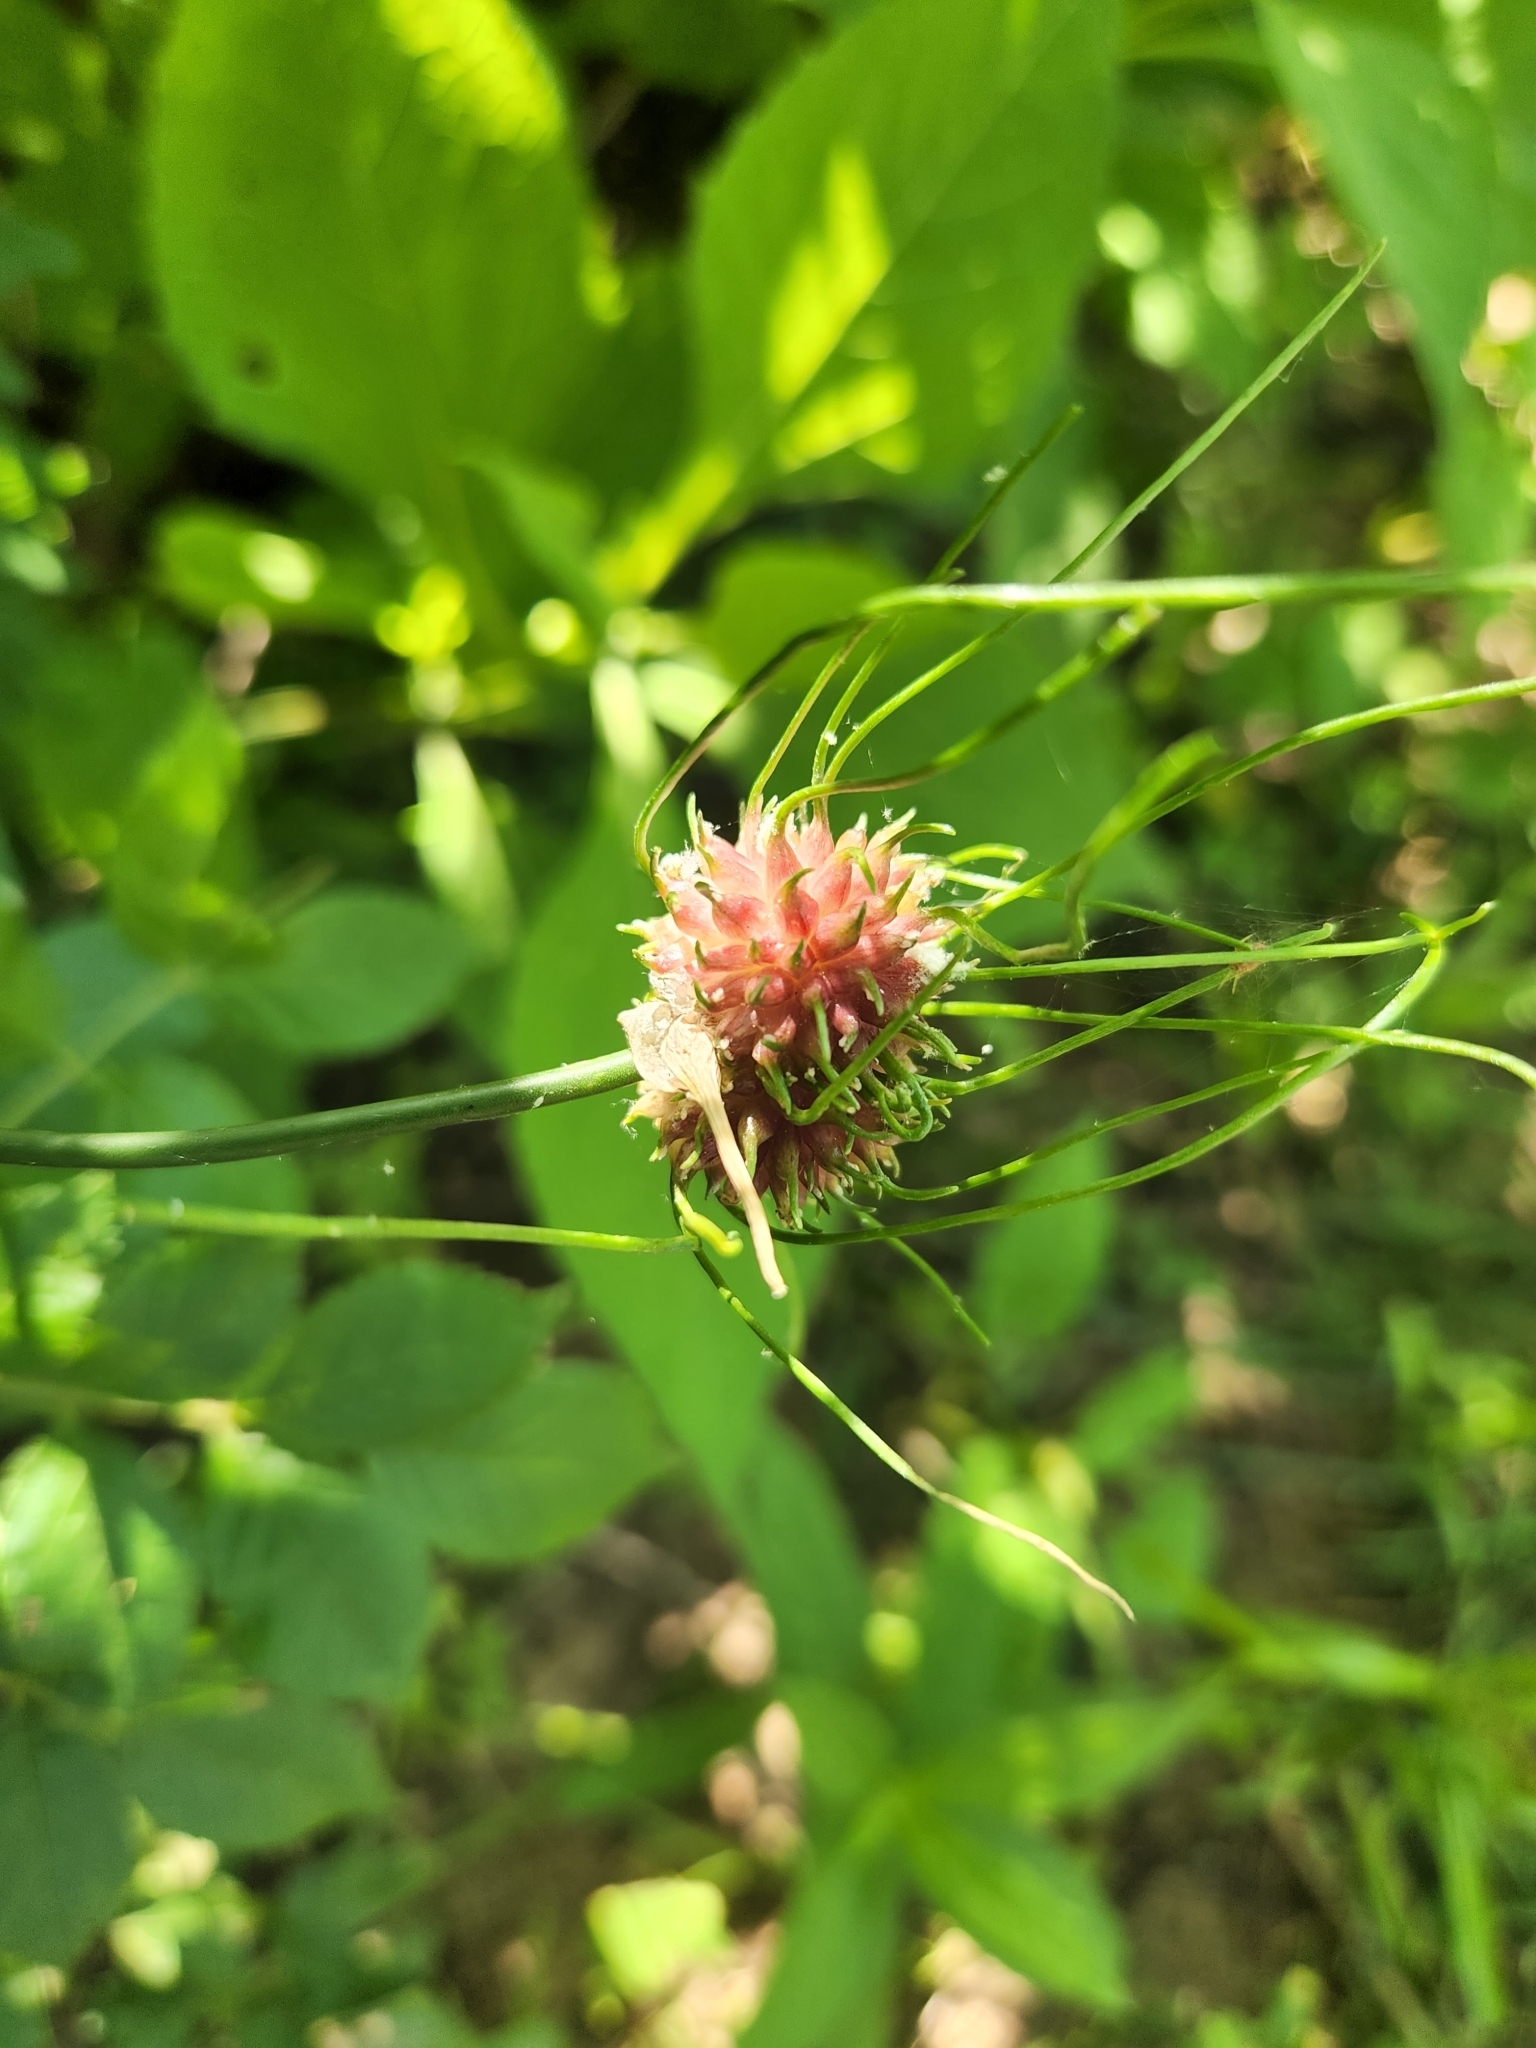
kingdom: Plantae
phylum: Tracheophyta
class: Liliopsida
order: Asparagales
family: Amaryllidaceae
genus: Allium
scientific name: Allium vineale
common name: Crow garlic
